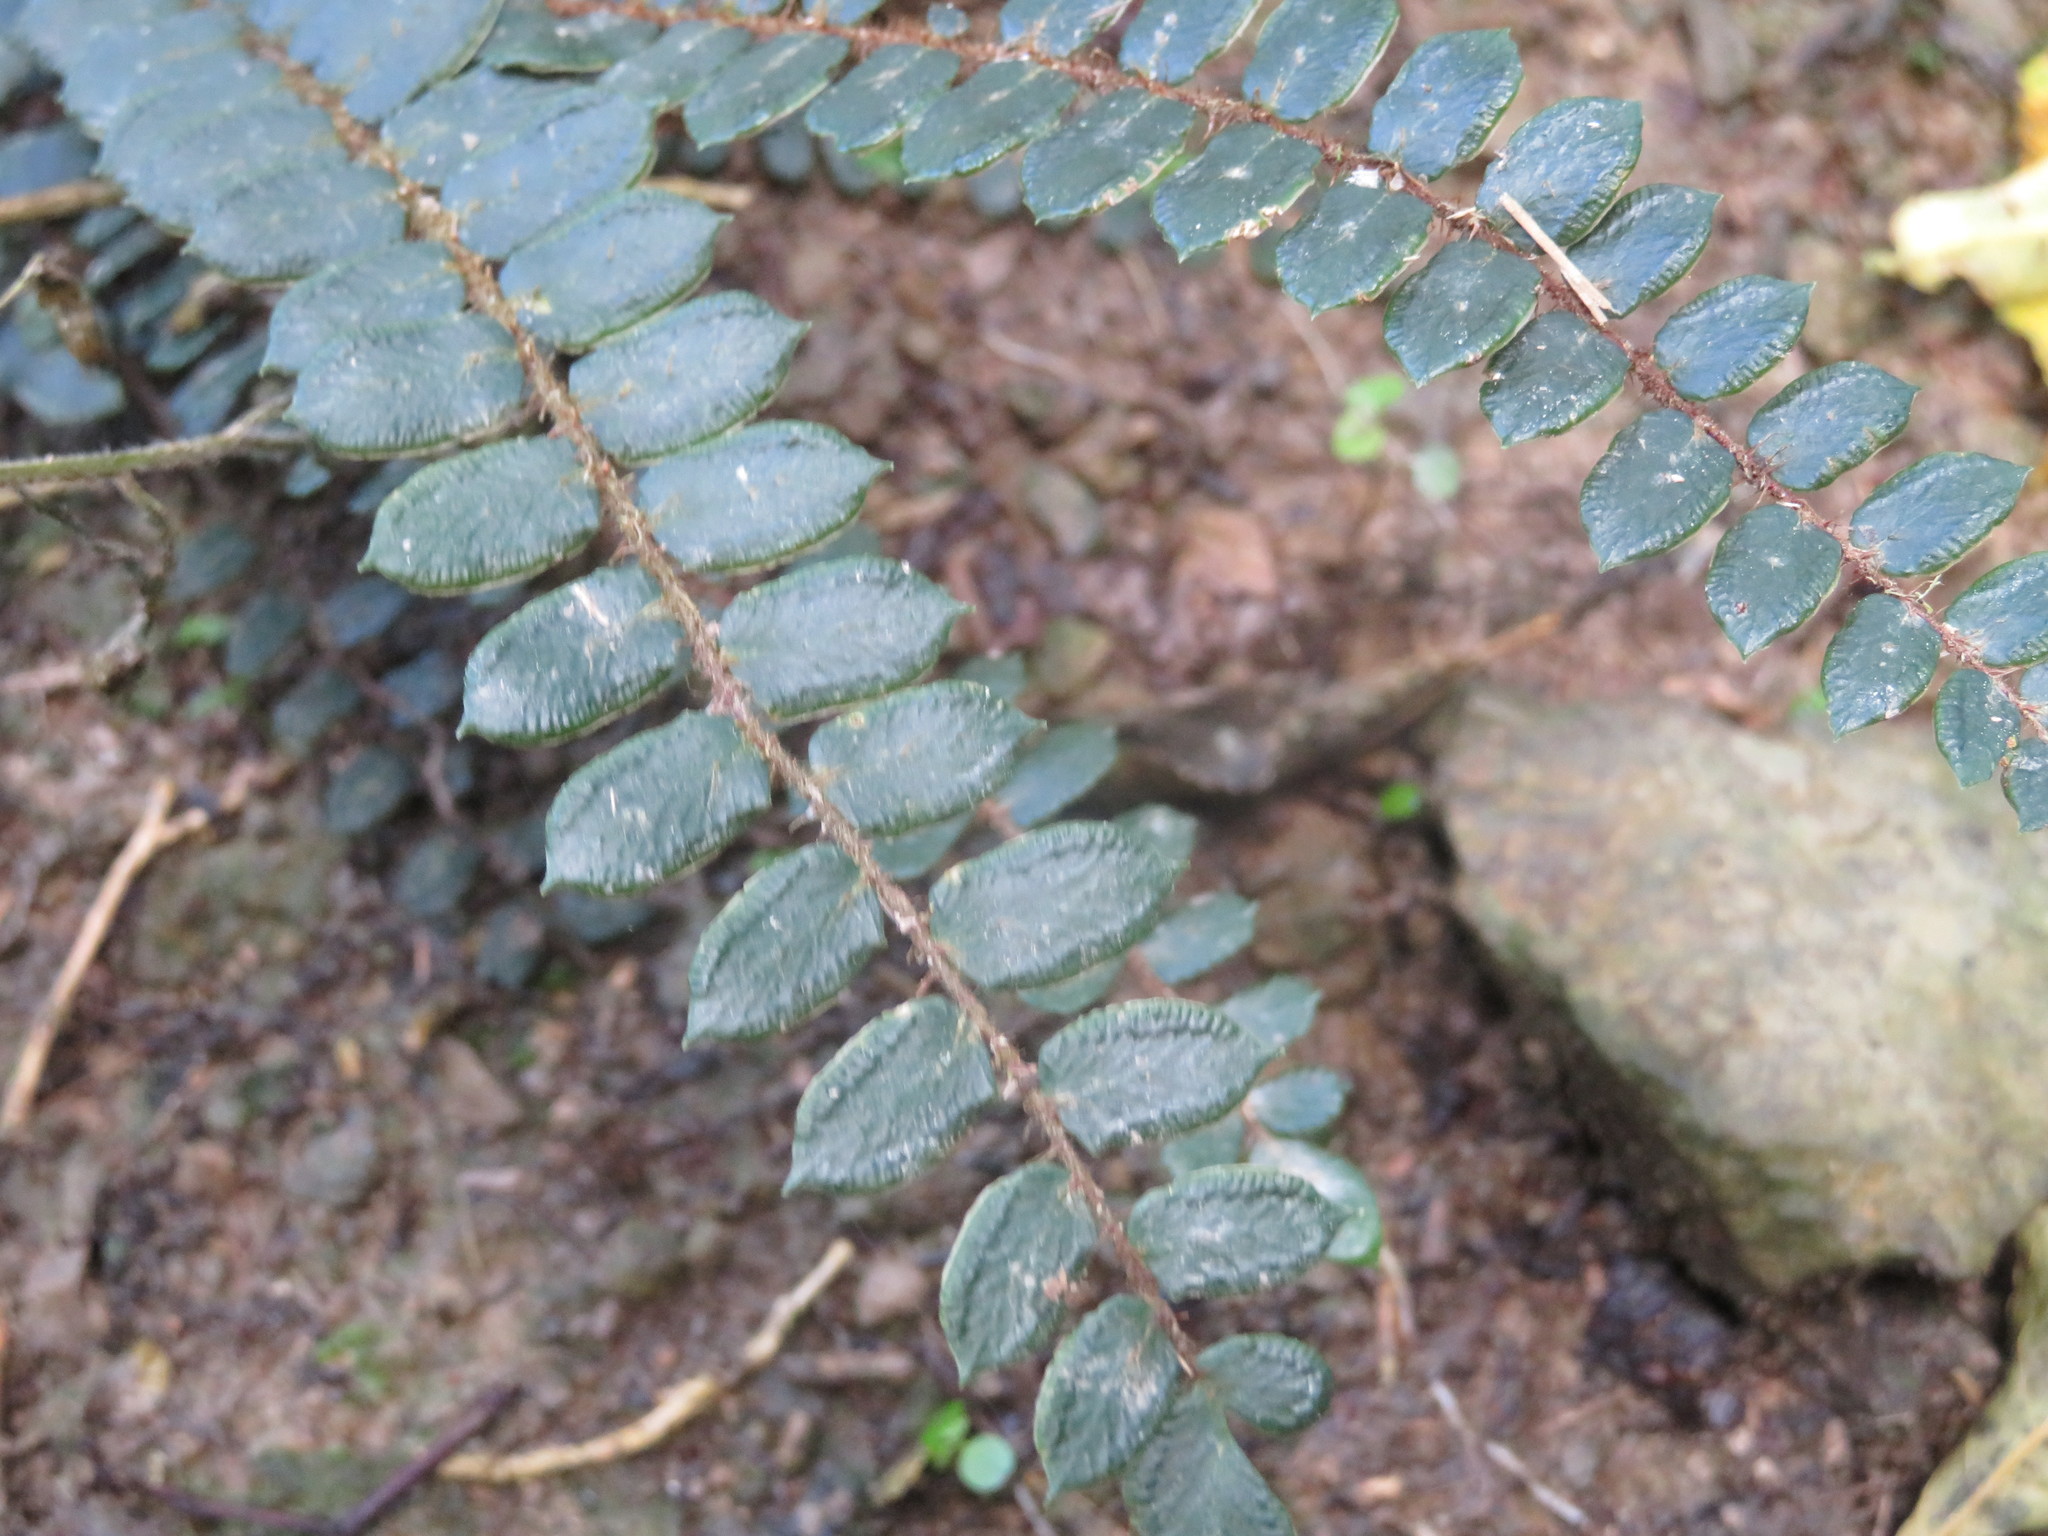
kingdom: Plantae
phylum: Tracheophyta
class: Polypodiopsida
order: Polypodiales
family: Pteridaceae
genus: Pellaea
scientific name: Pellaea rotundifolia
